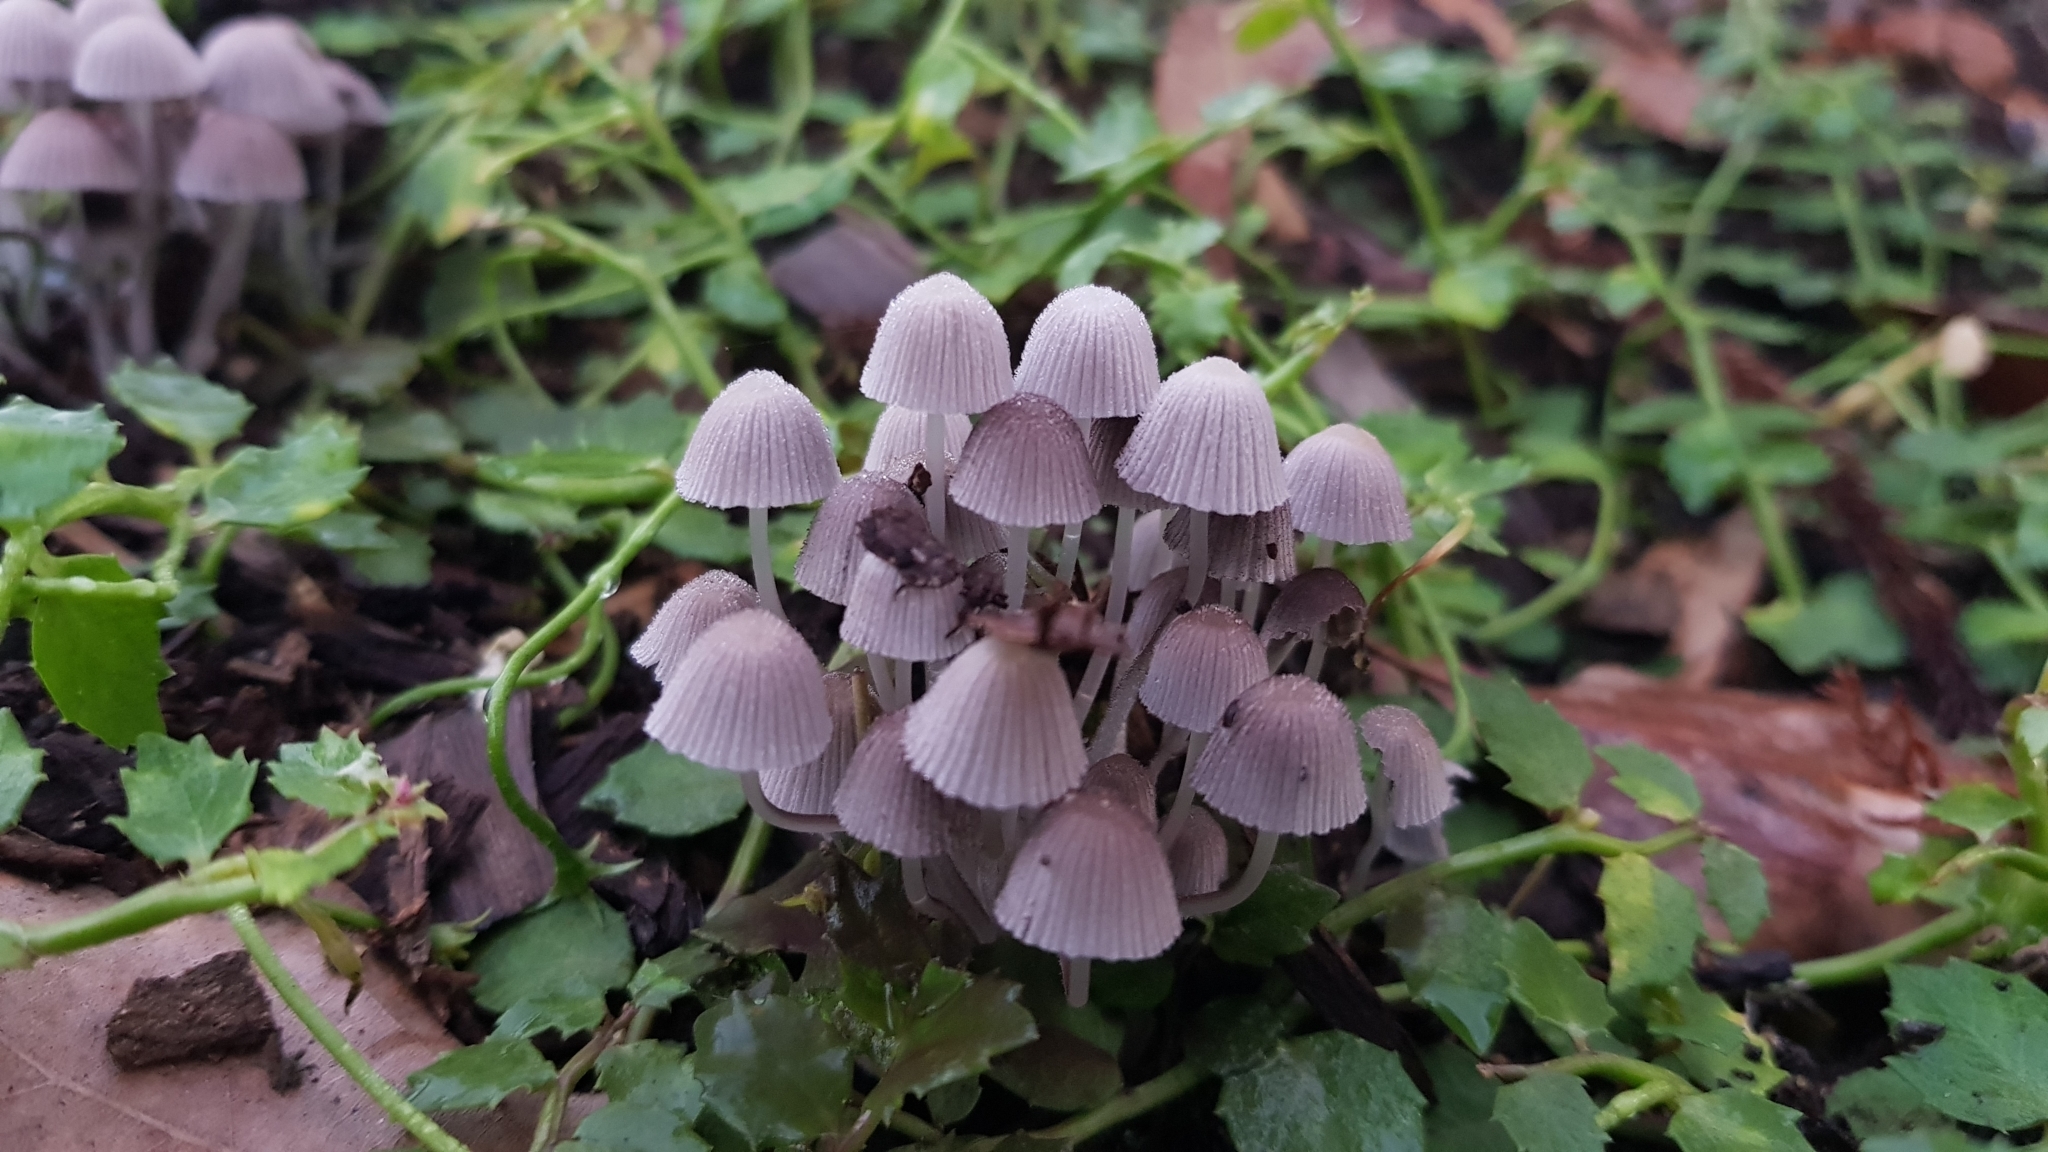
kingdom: Fungi
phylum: Basidiomycota
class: Agaricomycetes
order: Agaricales
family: Psathyrellaceae
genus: Coprinellus
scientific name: Coprinellus disseminatus
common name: Fairies' bonnets
